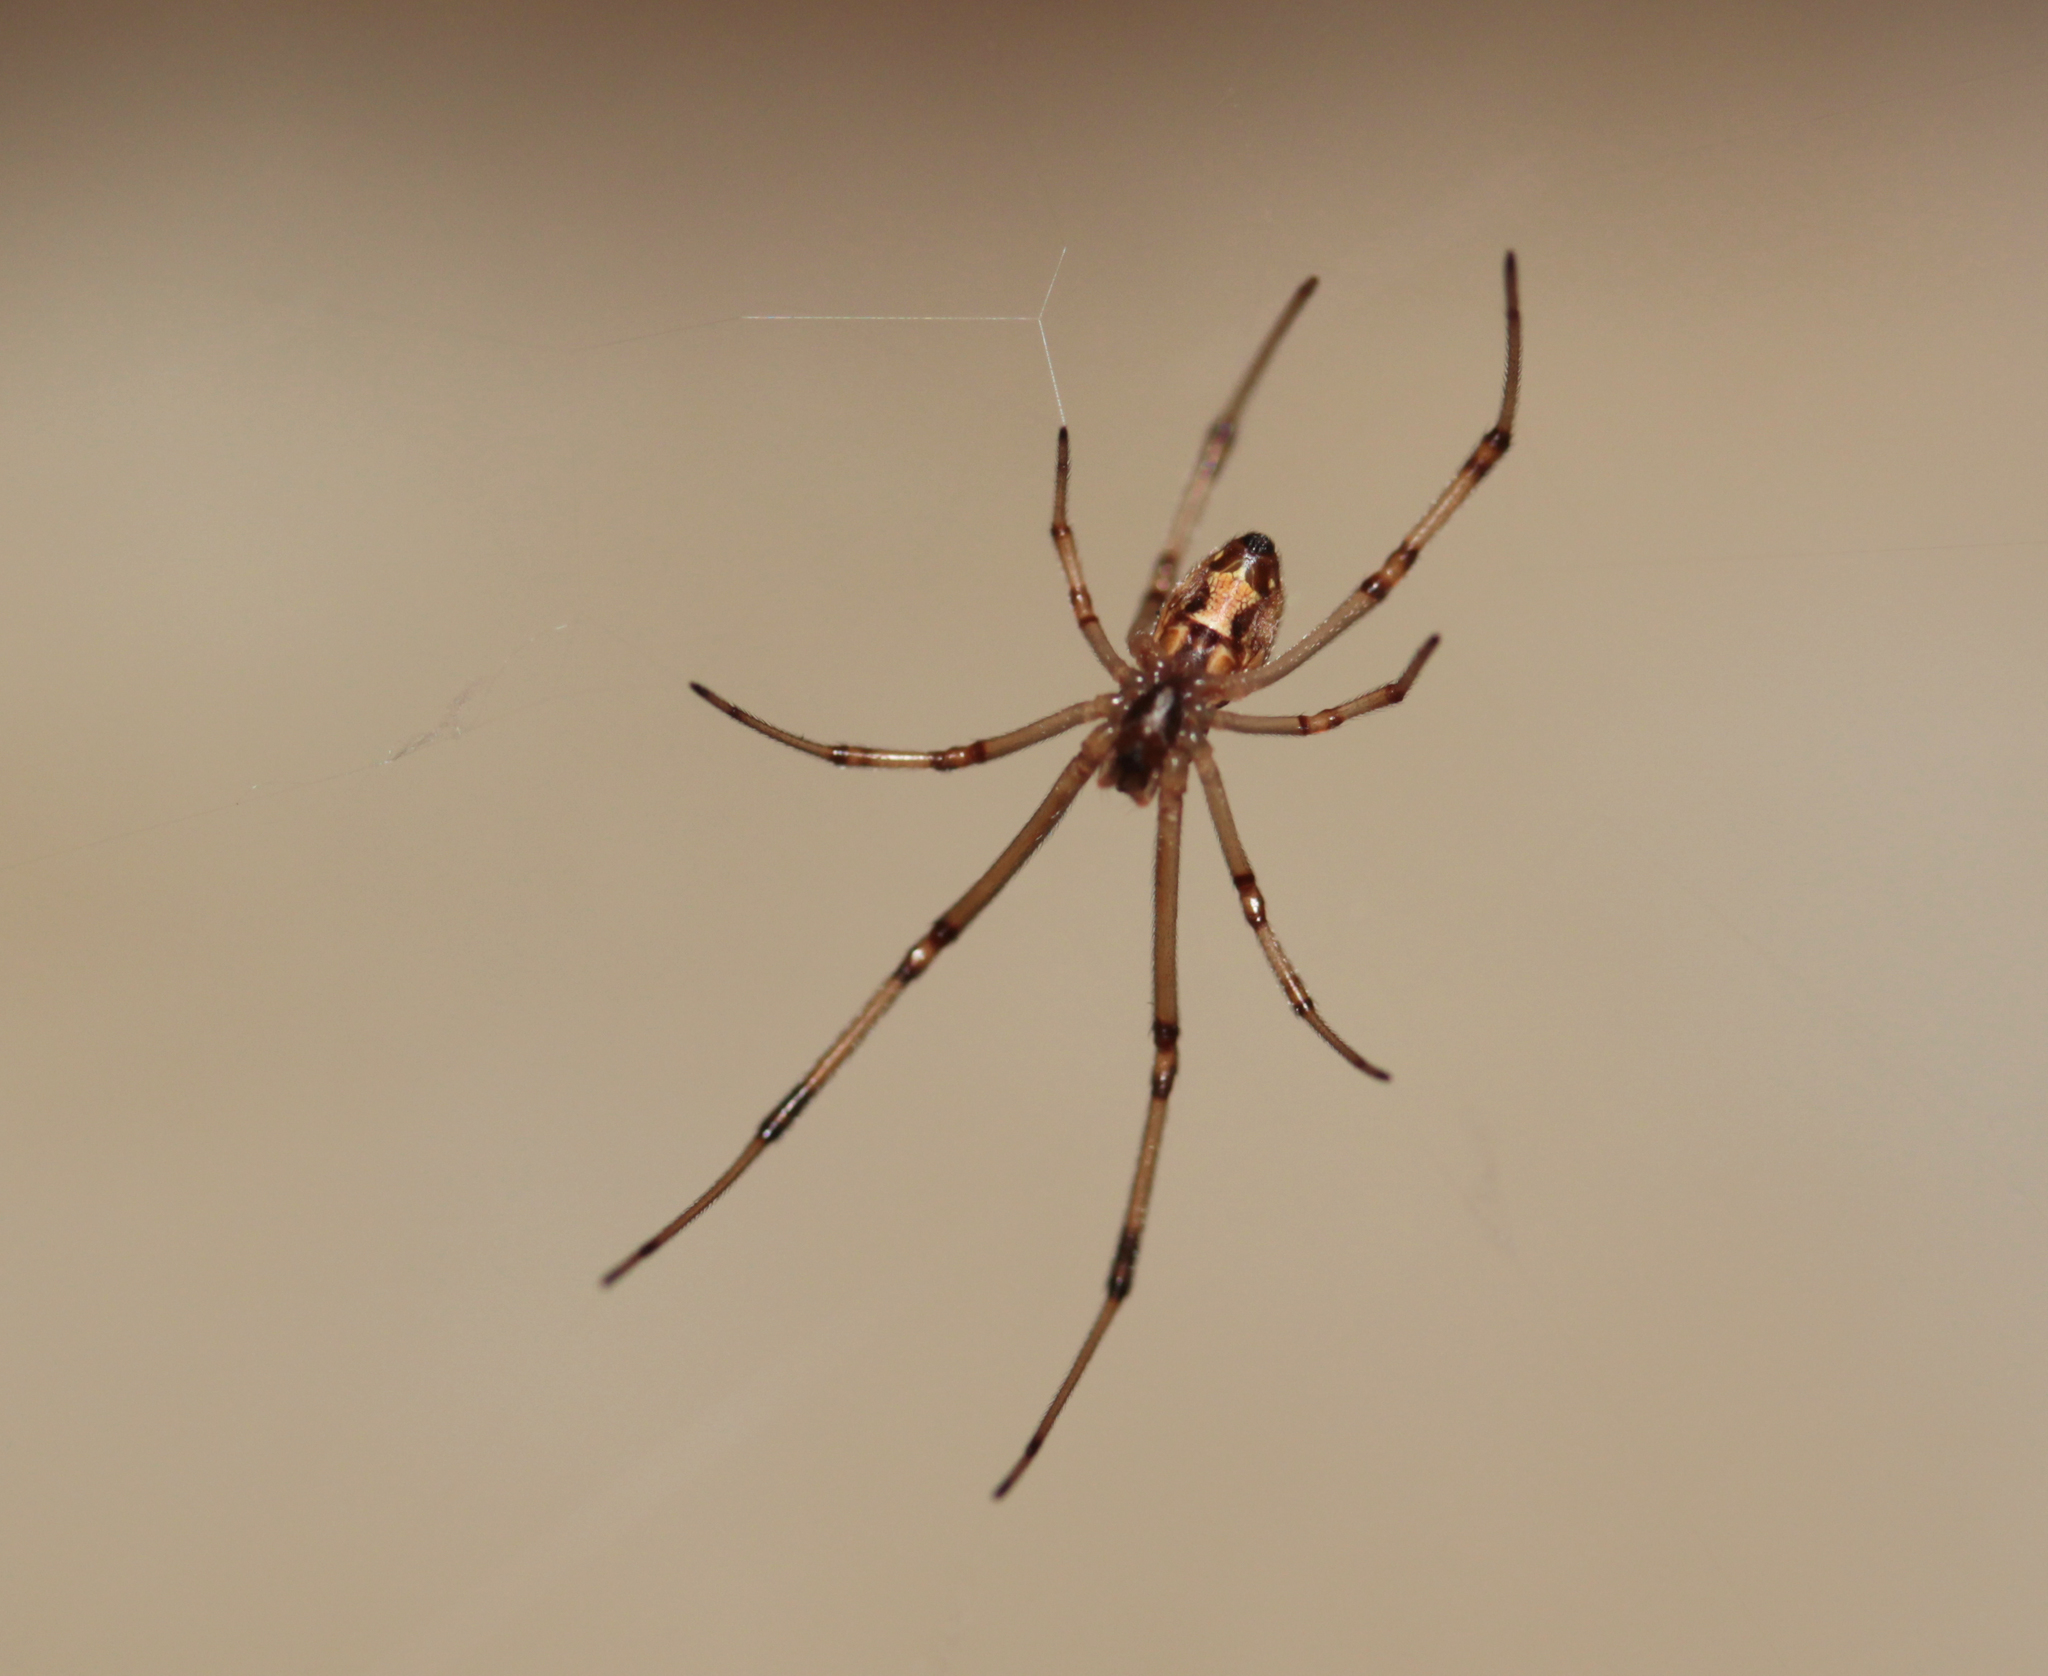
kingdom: Animalia
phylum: Arthropoda
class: Arachnida
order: Araneae
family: Theridiidae
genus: Latrodectus
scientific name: Latrodectus geometricus
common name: Brown widow spider
